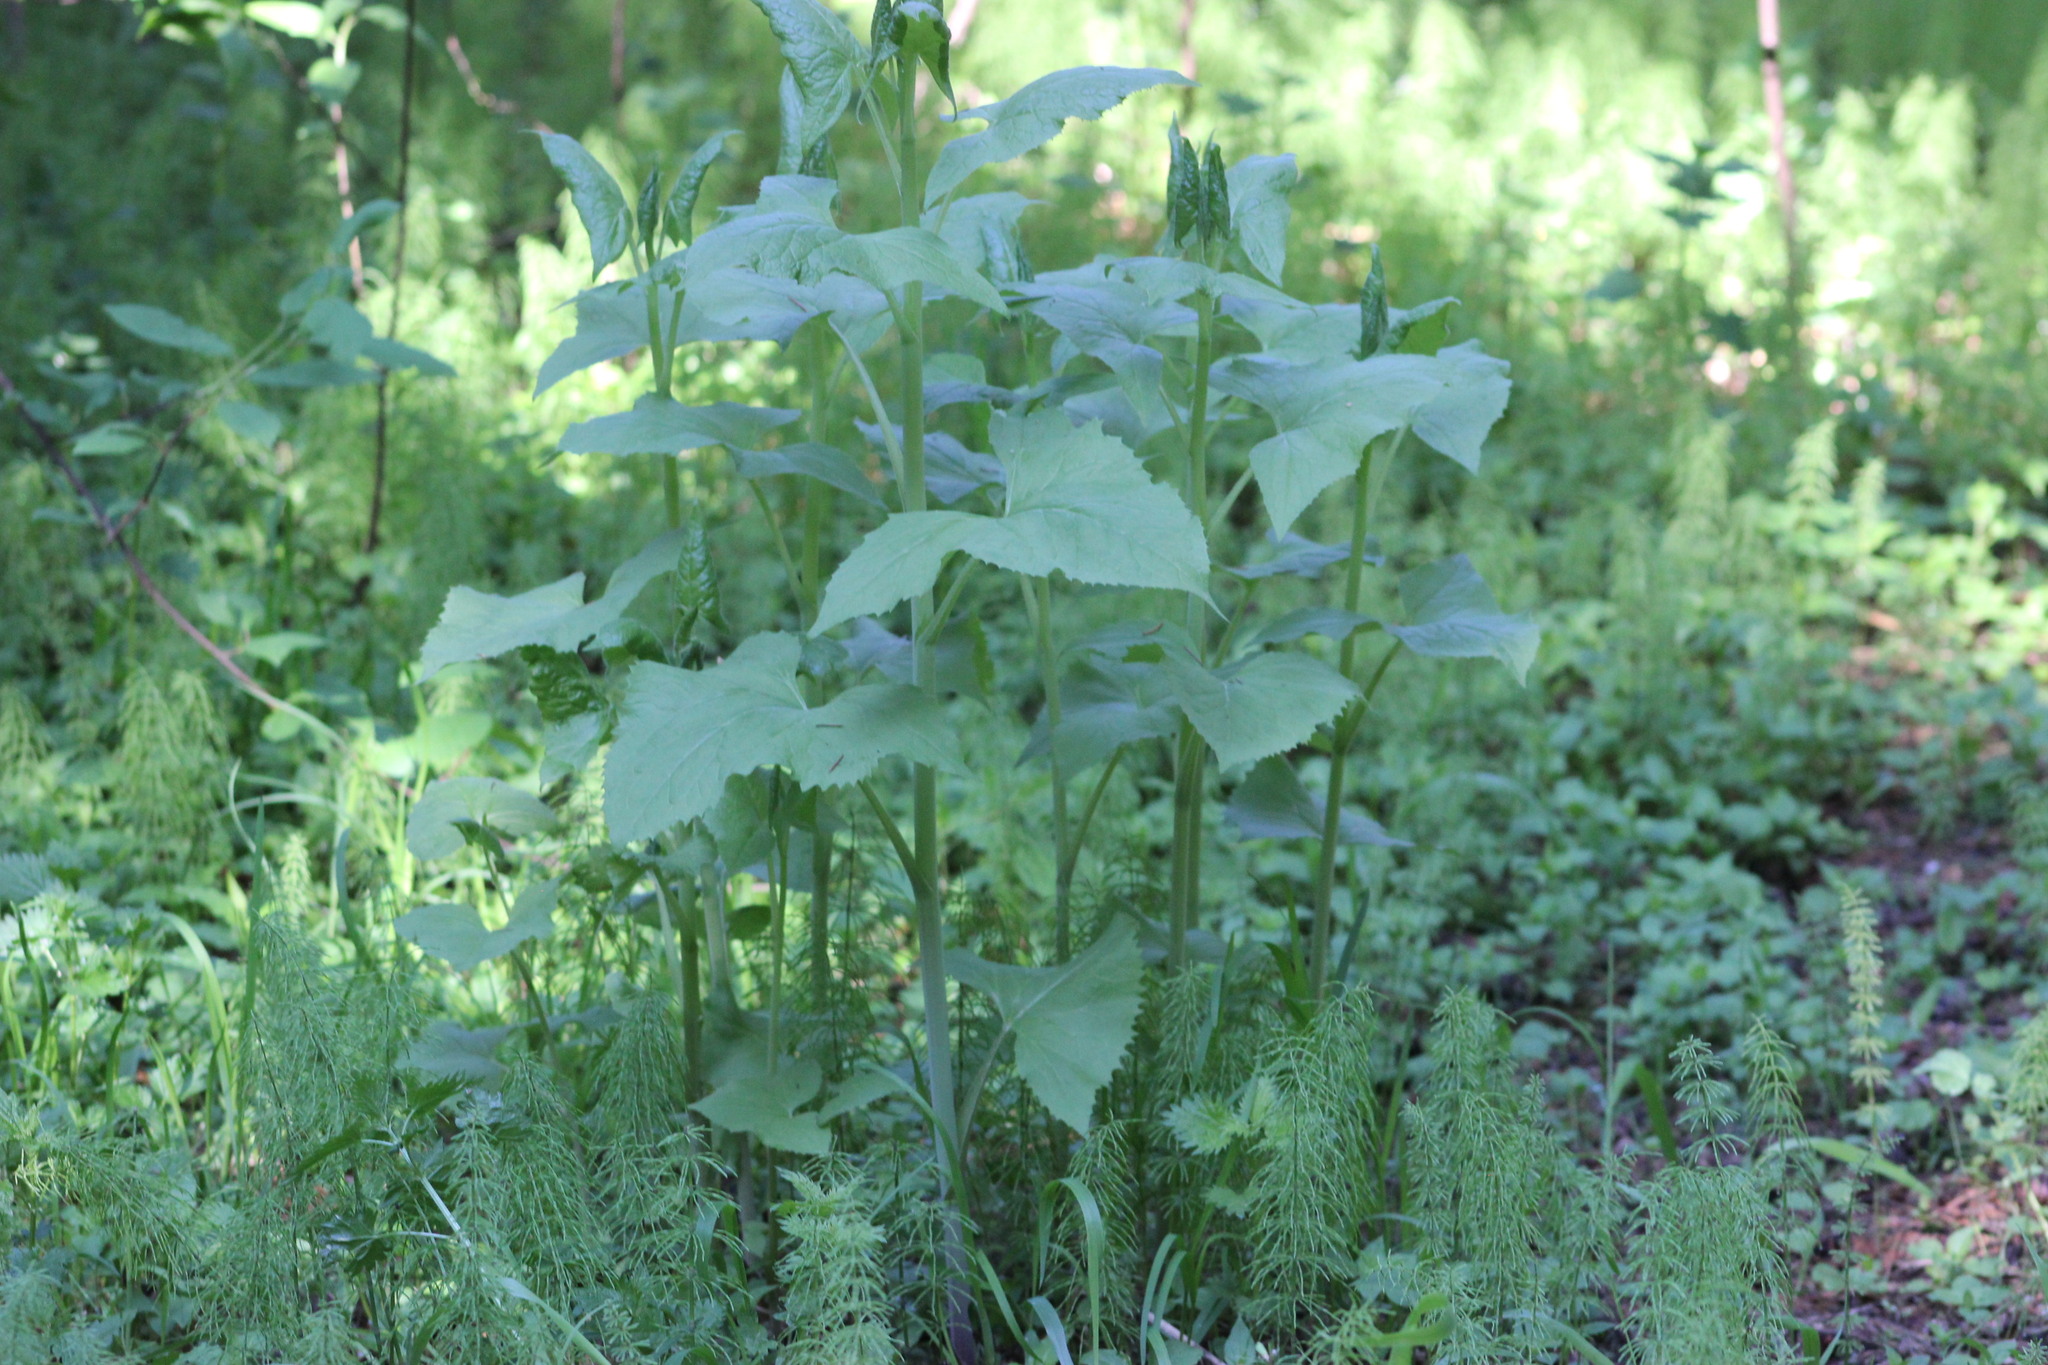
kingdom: Plantae
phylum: Tracheophyta
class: Magnoliopsida
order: Asterales
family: Asteraceae
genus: Parasenecio
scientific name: Parasenecio hastatus
